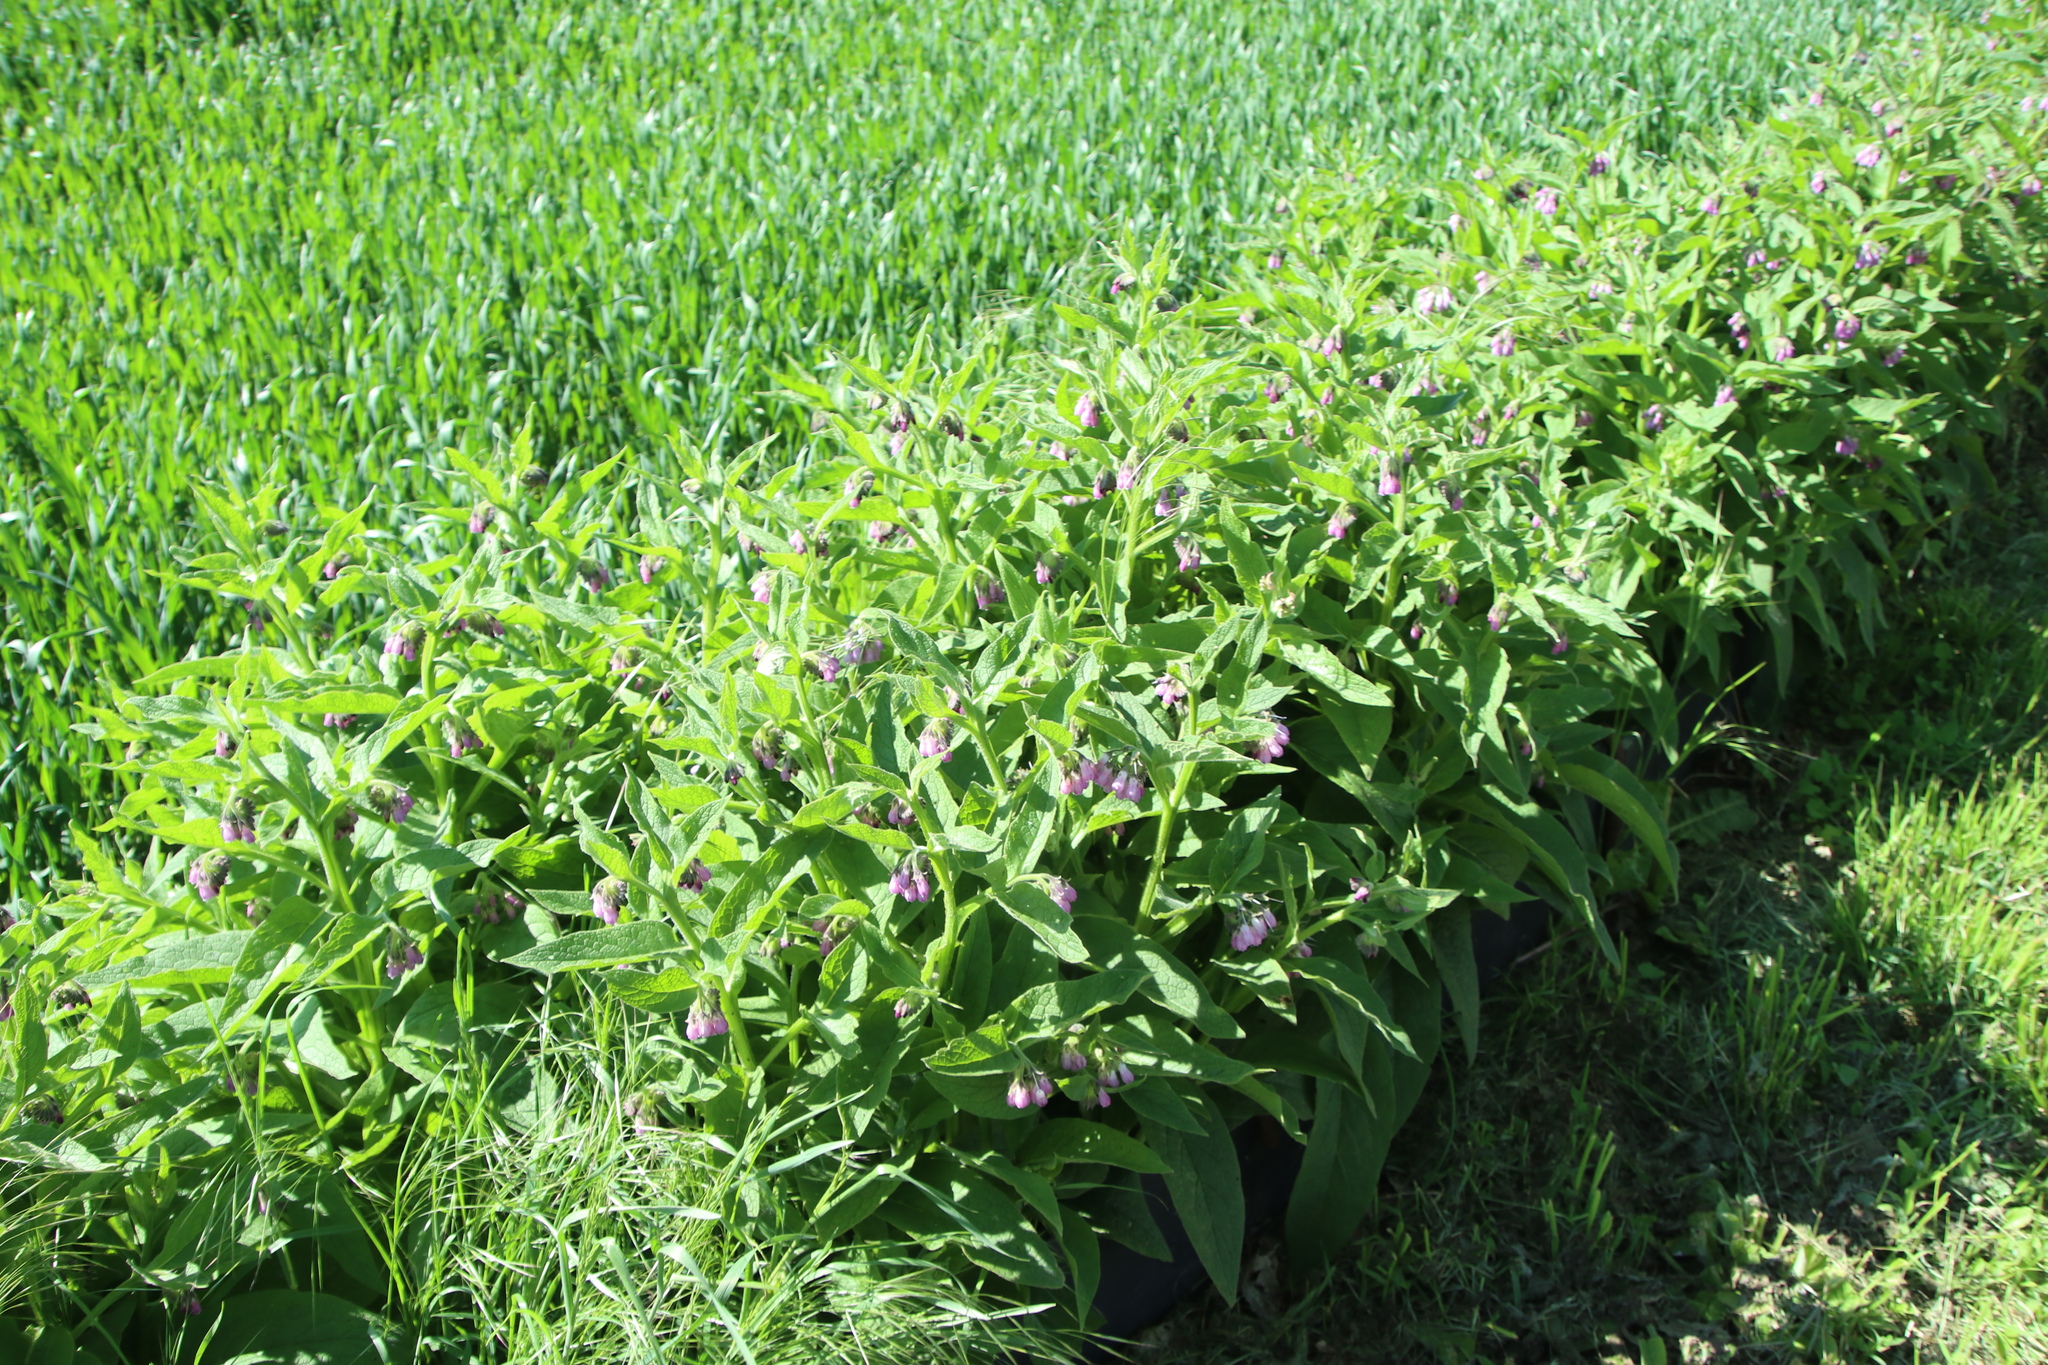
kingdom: Plantae
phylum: Tracheophyta
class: Magnoliopsida
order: Boraginales
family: Boraginaceae
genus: Symphytum
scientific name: Symphytum officinale
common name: Common comfrey
